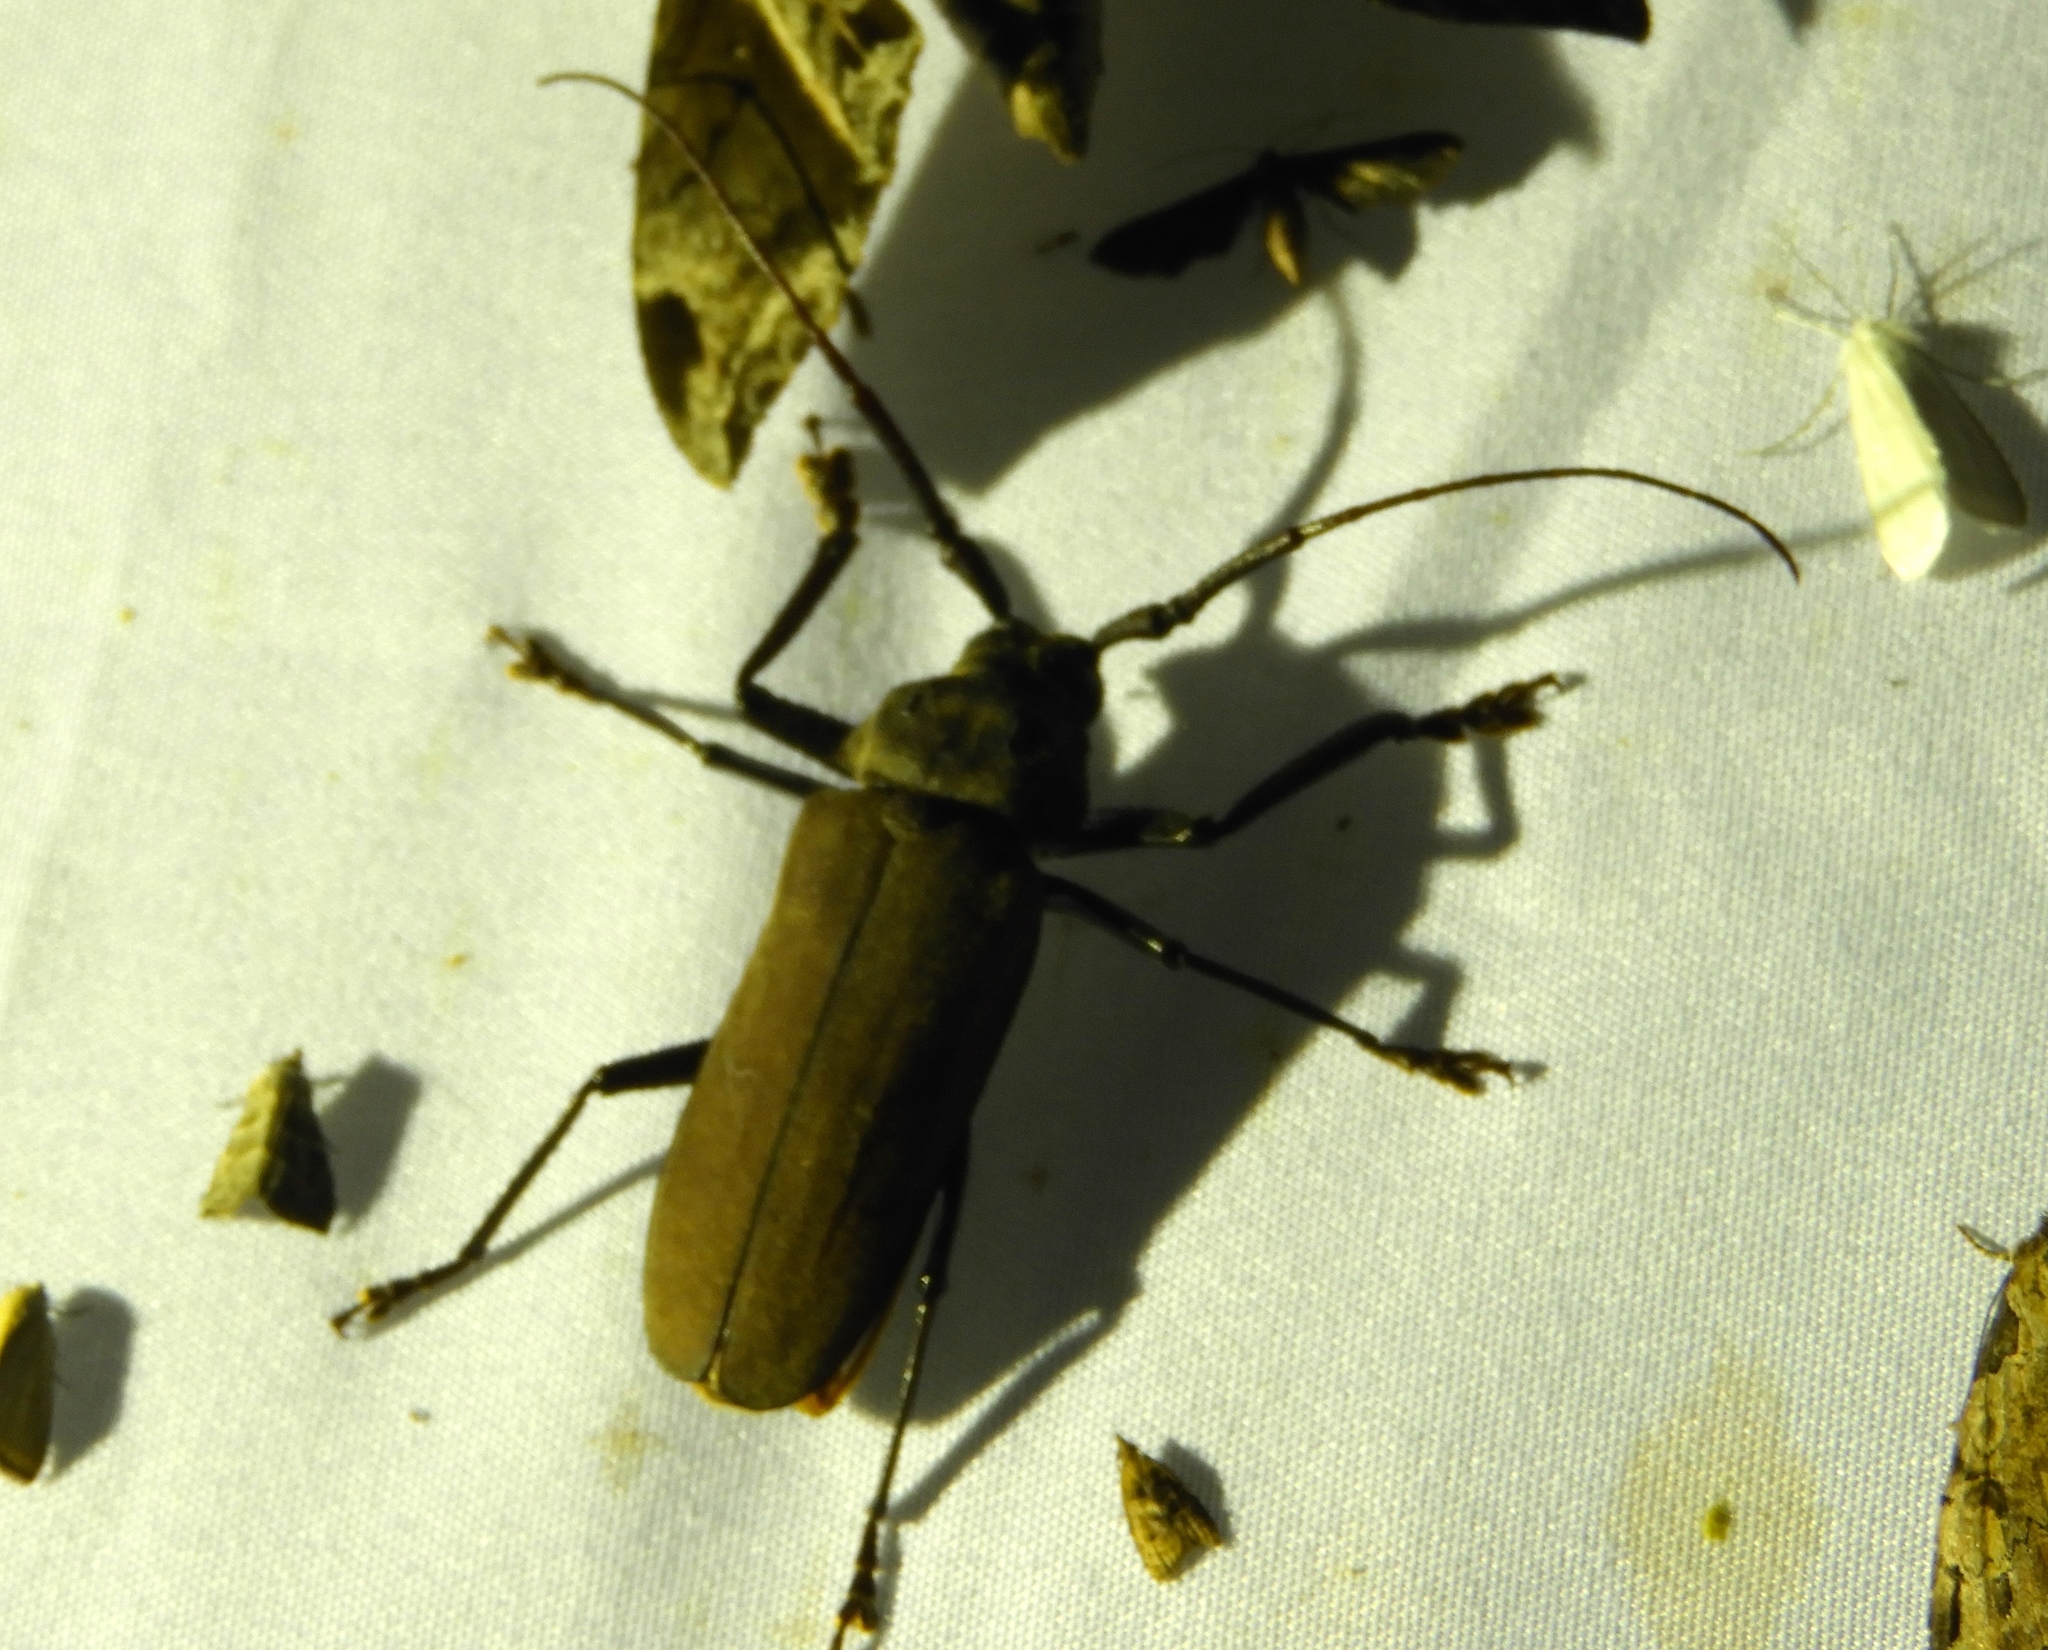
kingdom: Animalia
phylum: Arthropoda
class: Insecta
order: Coleoptera
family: Cerambycidae
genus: Strongylaspis
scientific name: Strongylaspis
